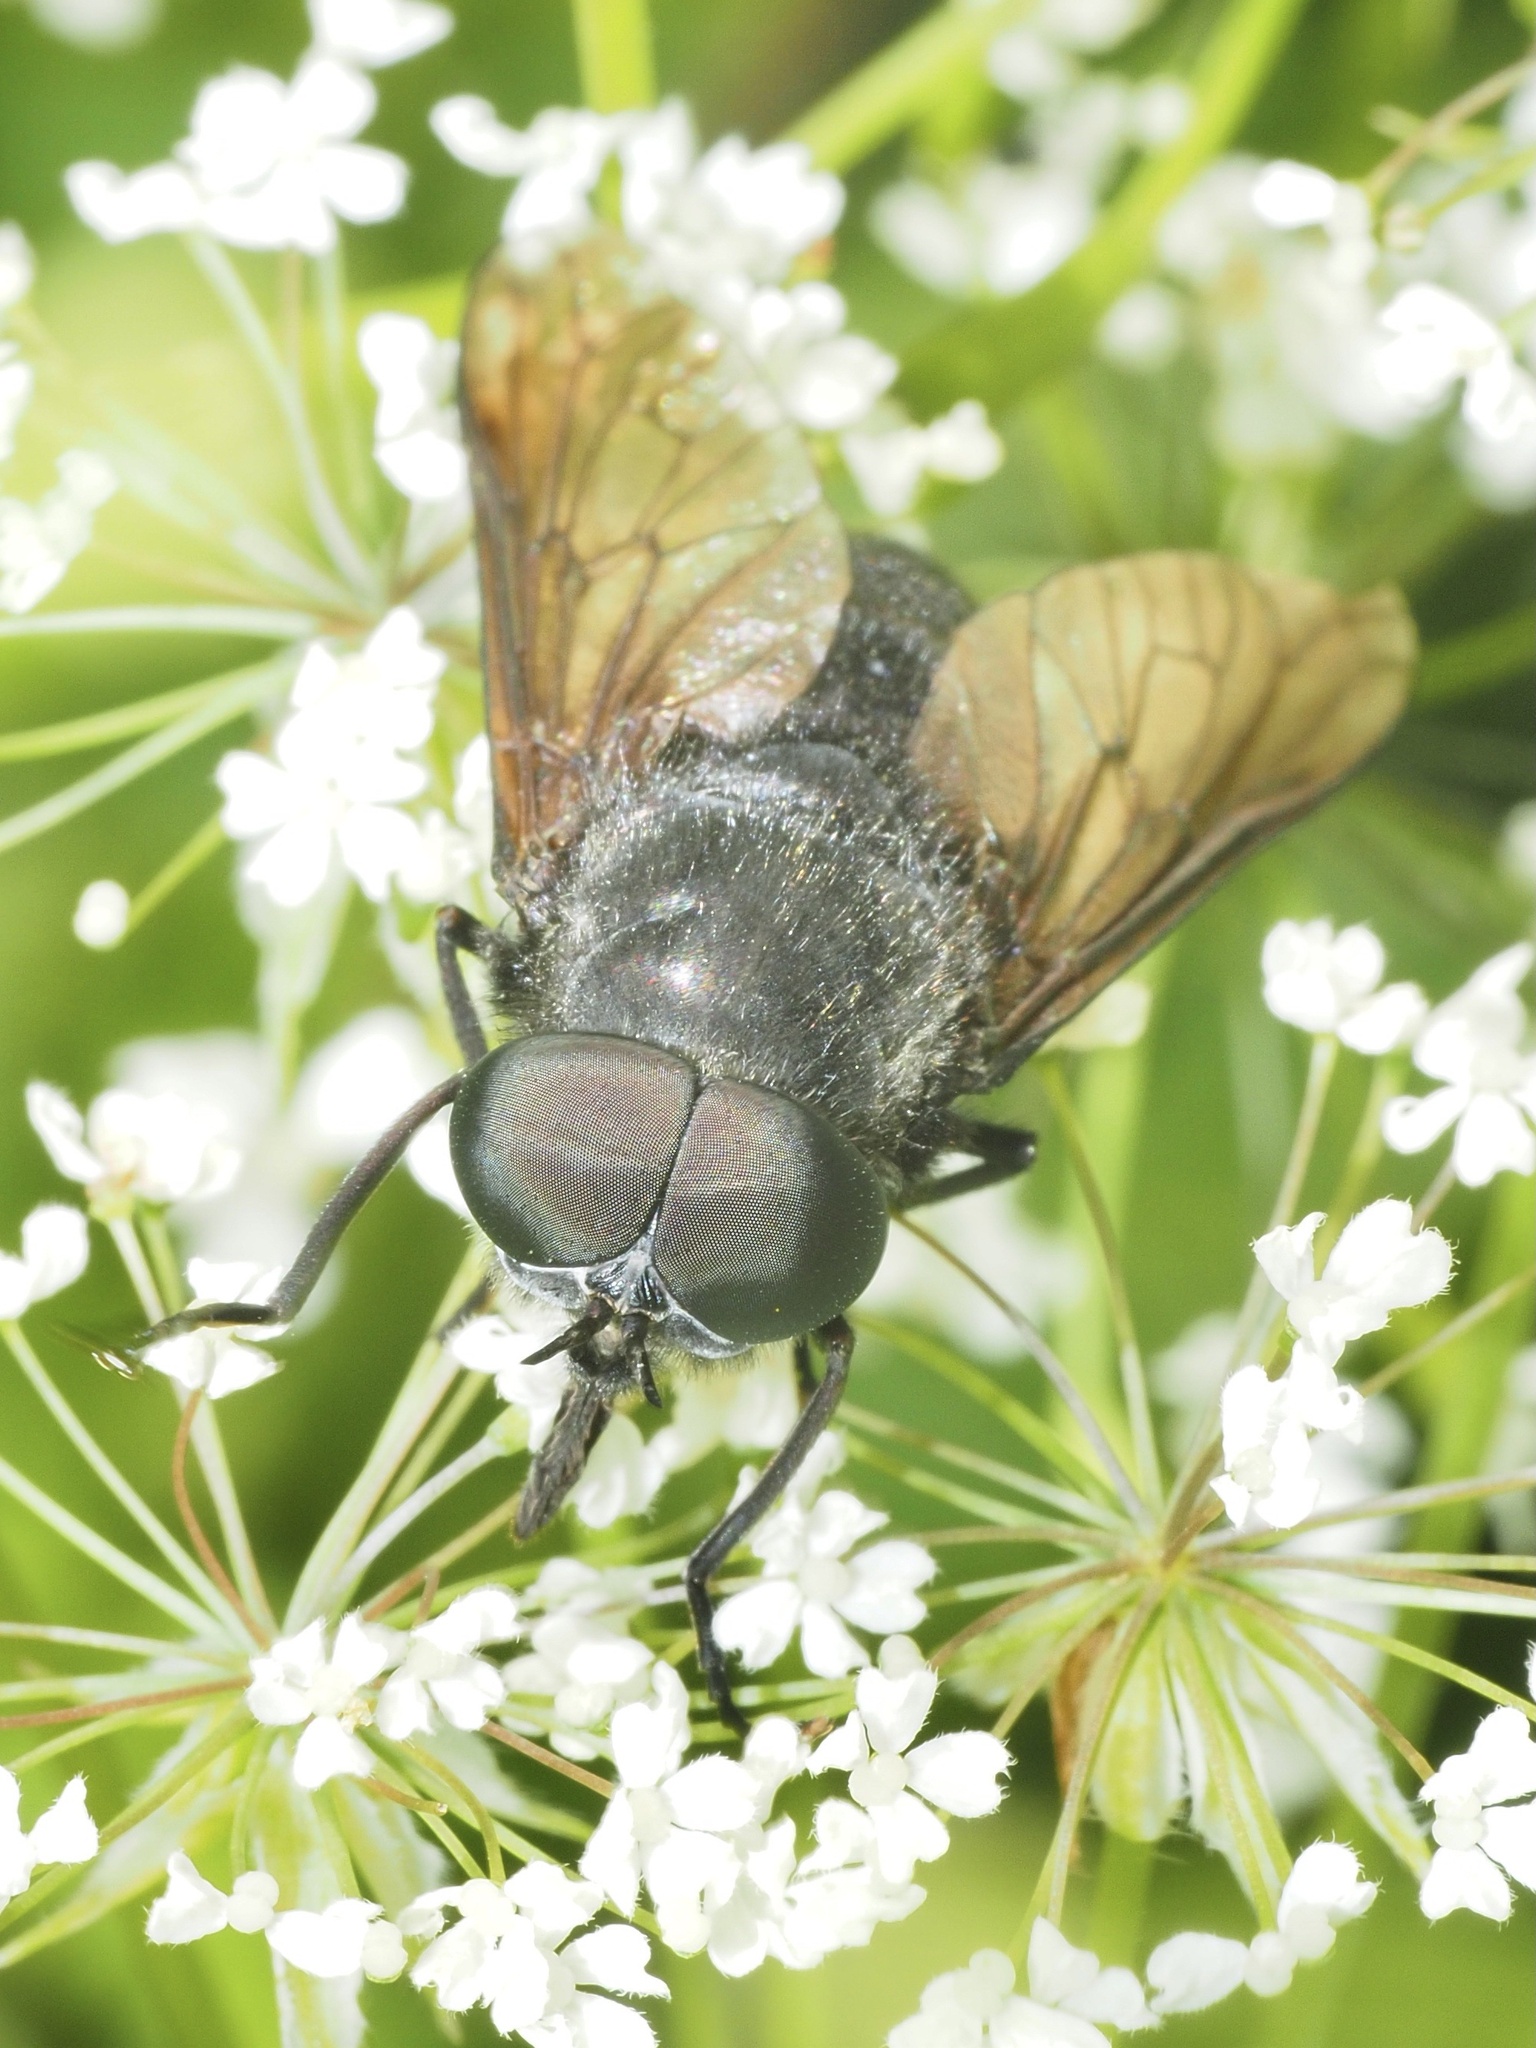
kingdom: Animalia
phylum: Arthropoda
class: Insecta
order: Diptera
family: Tabanidae
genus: Dasyrhamphis
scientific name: Dasyrhamphis ater
